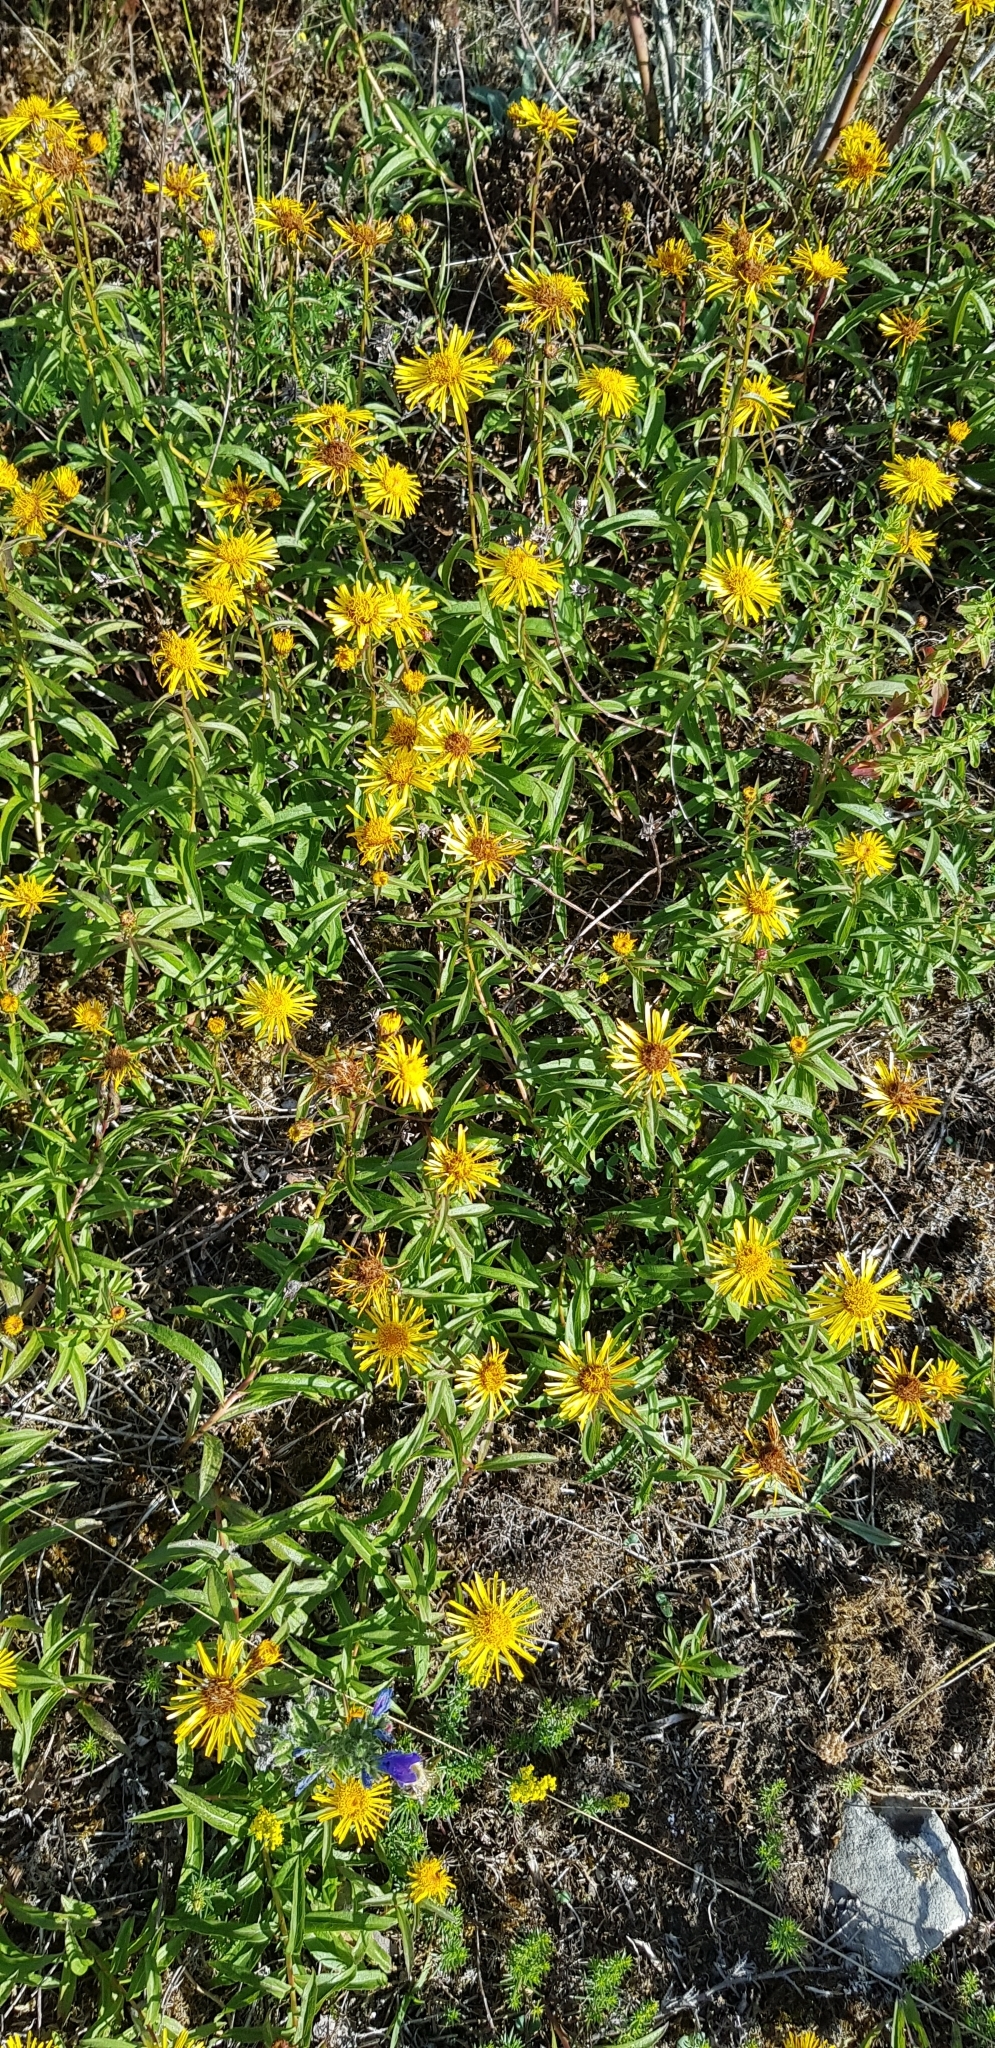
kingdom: Plantae
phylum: Tracheophyta
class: Magnoliopsida
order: Asterales
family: Asteraceae
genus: Pentanema
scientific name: Pentanema salicinum
